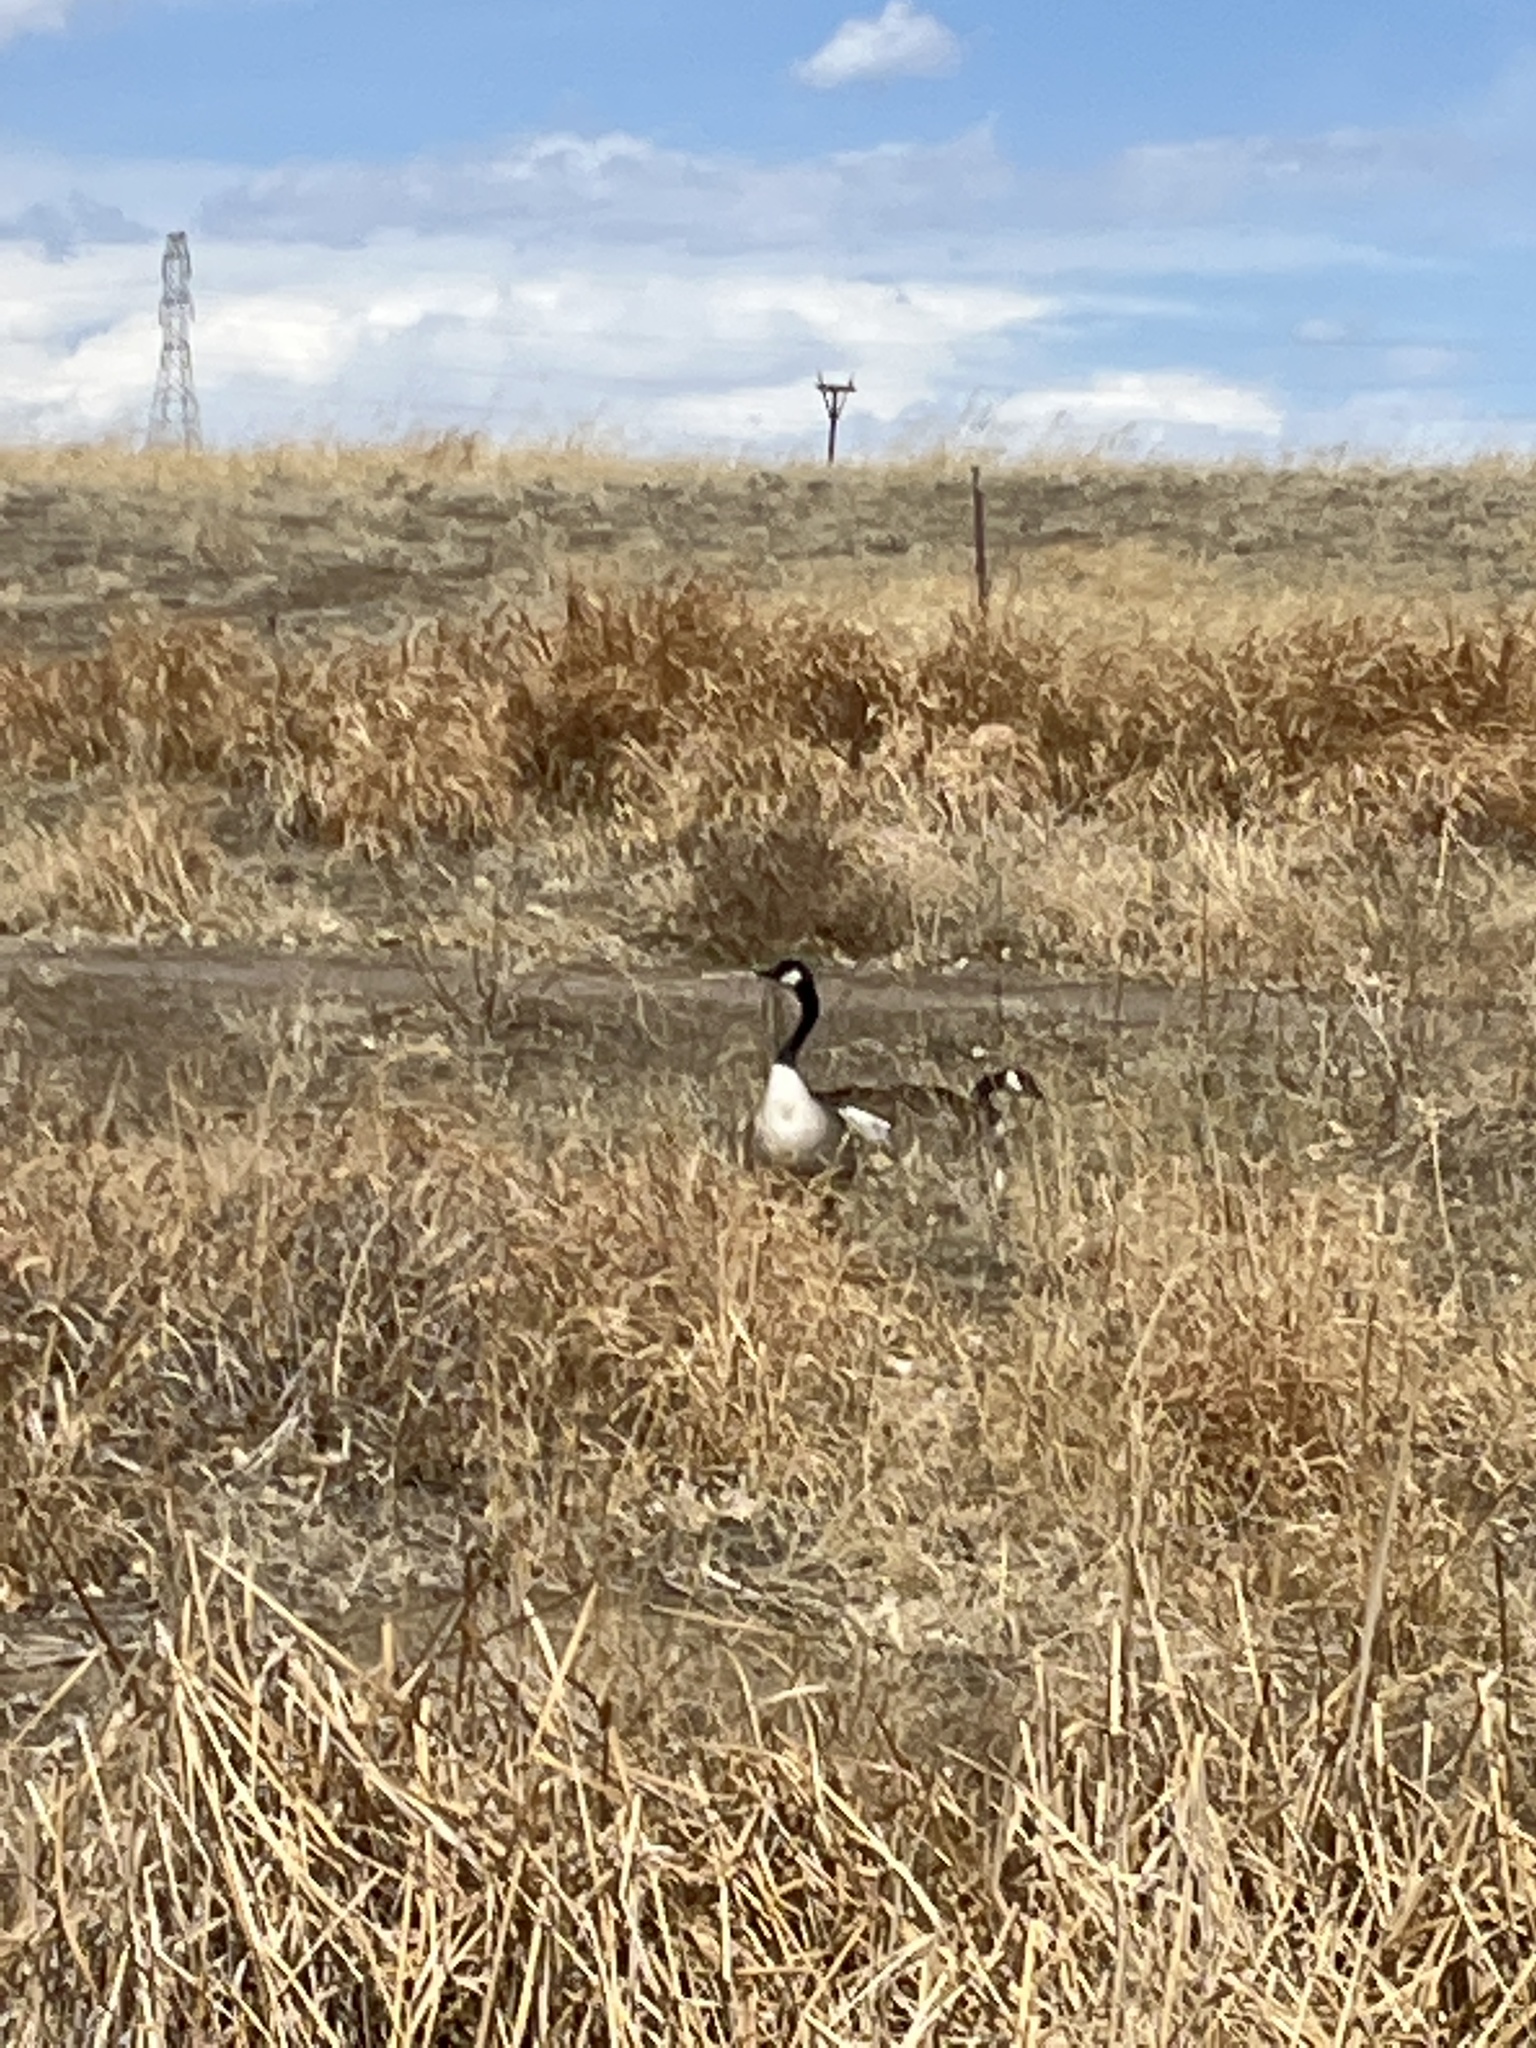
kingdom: Animalia
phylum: Chordata
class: Aves
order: Anseriformes
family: Anatidae
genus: Branta
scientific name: Branta canadensis
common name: Canada goose
